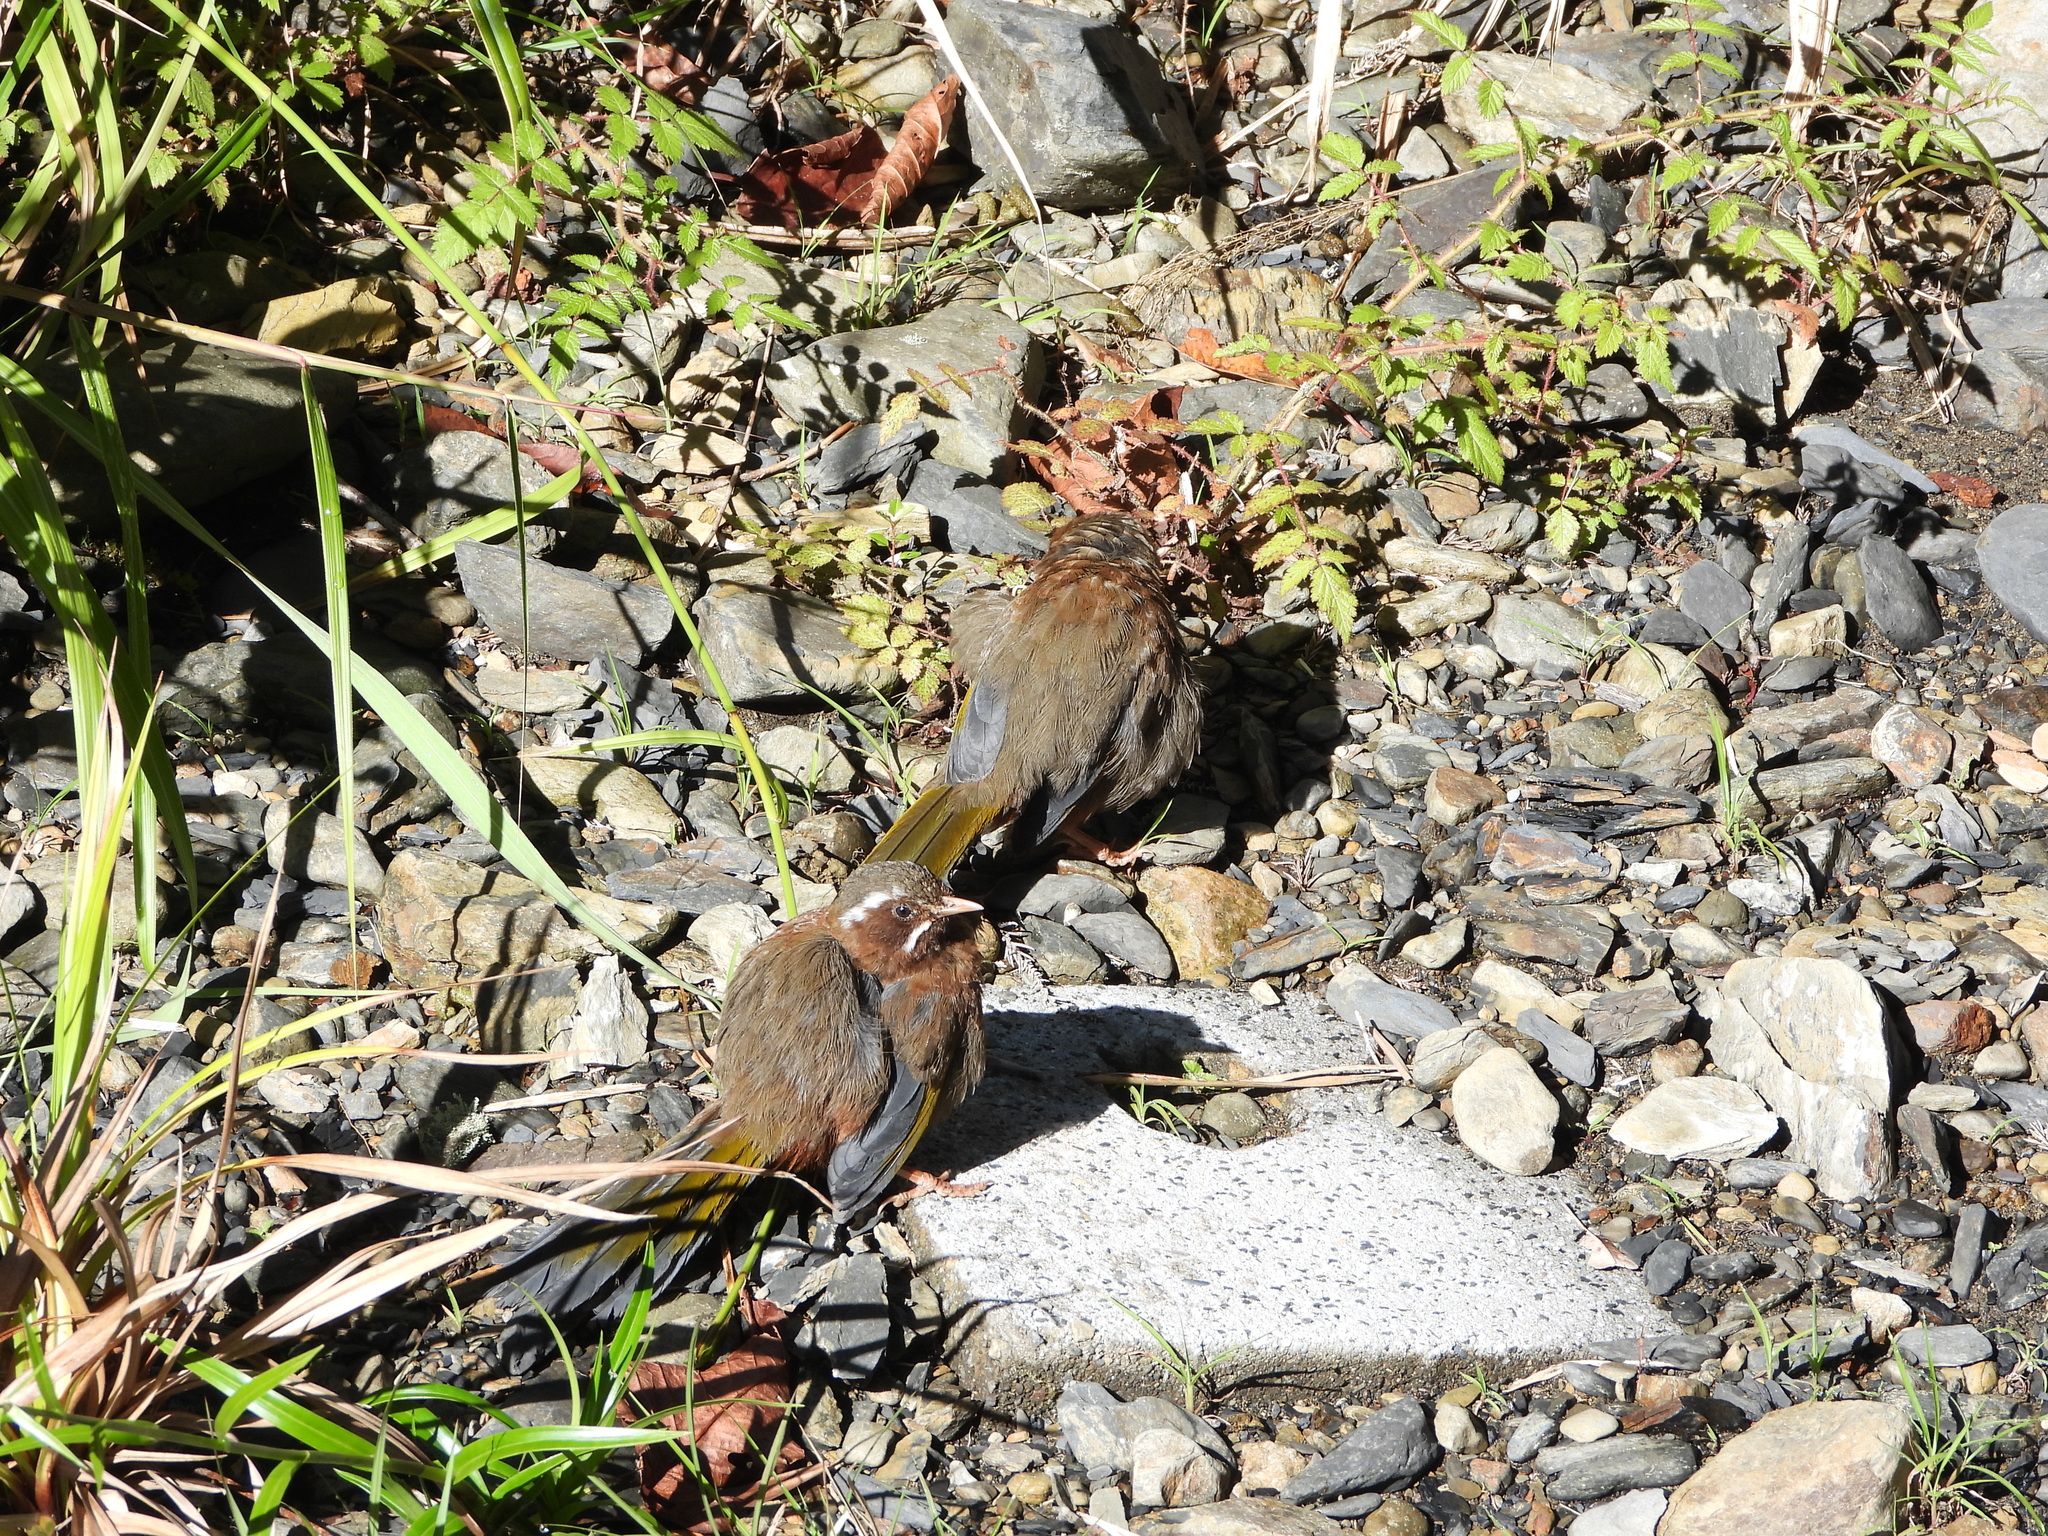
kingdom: Animalia
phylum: Chordata
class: Aves
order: Passeriformes
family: Leiothrichidae
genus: Trochalopteron
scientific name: Trochalopteron morrisonianum
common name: White-whiskered laughingthrush
